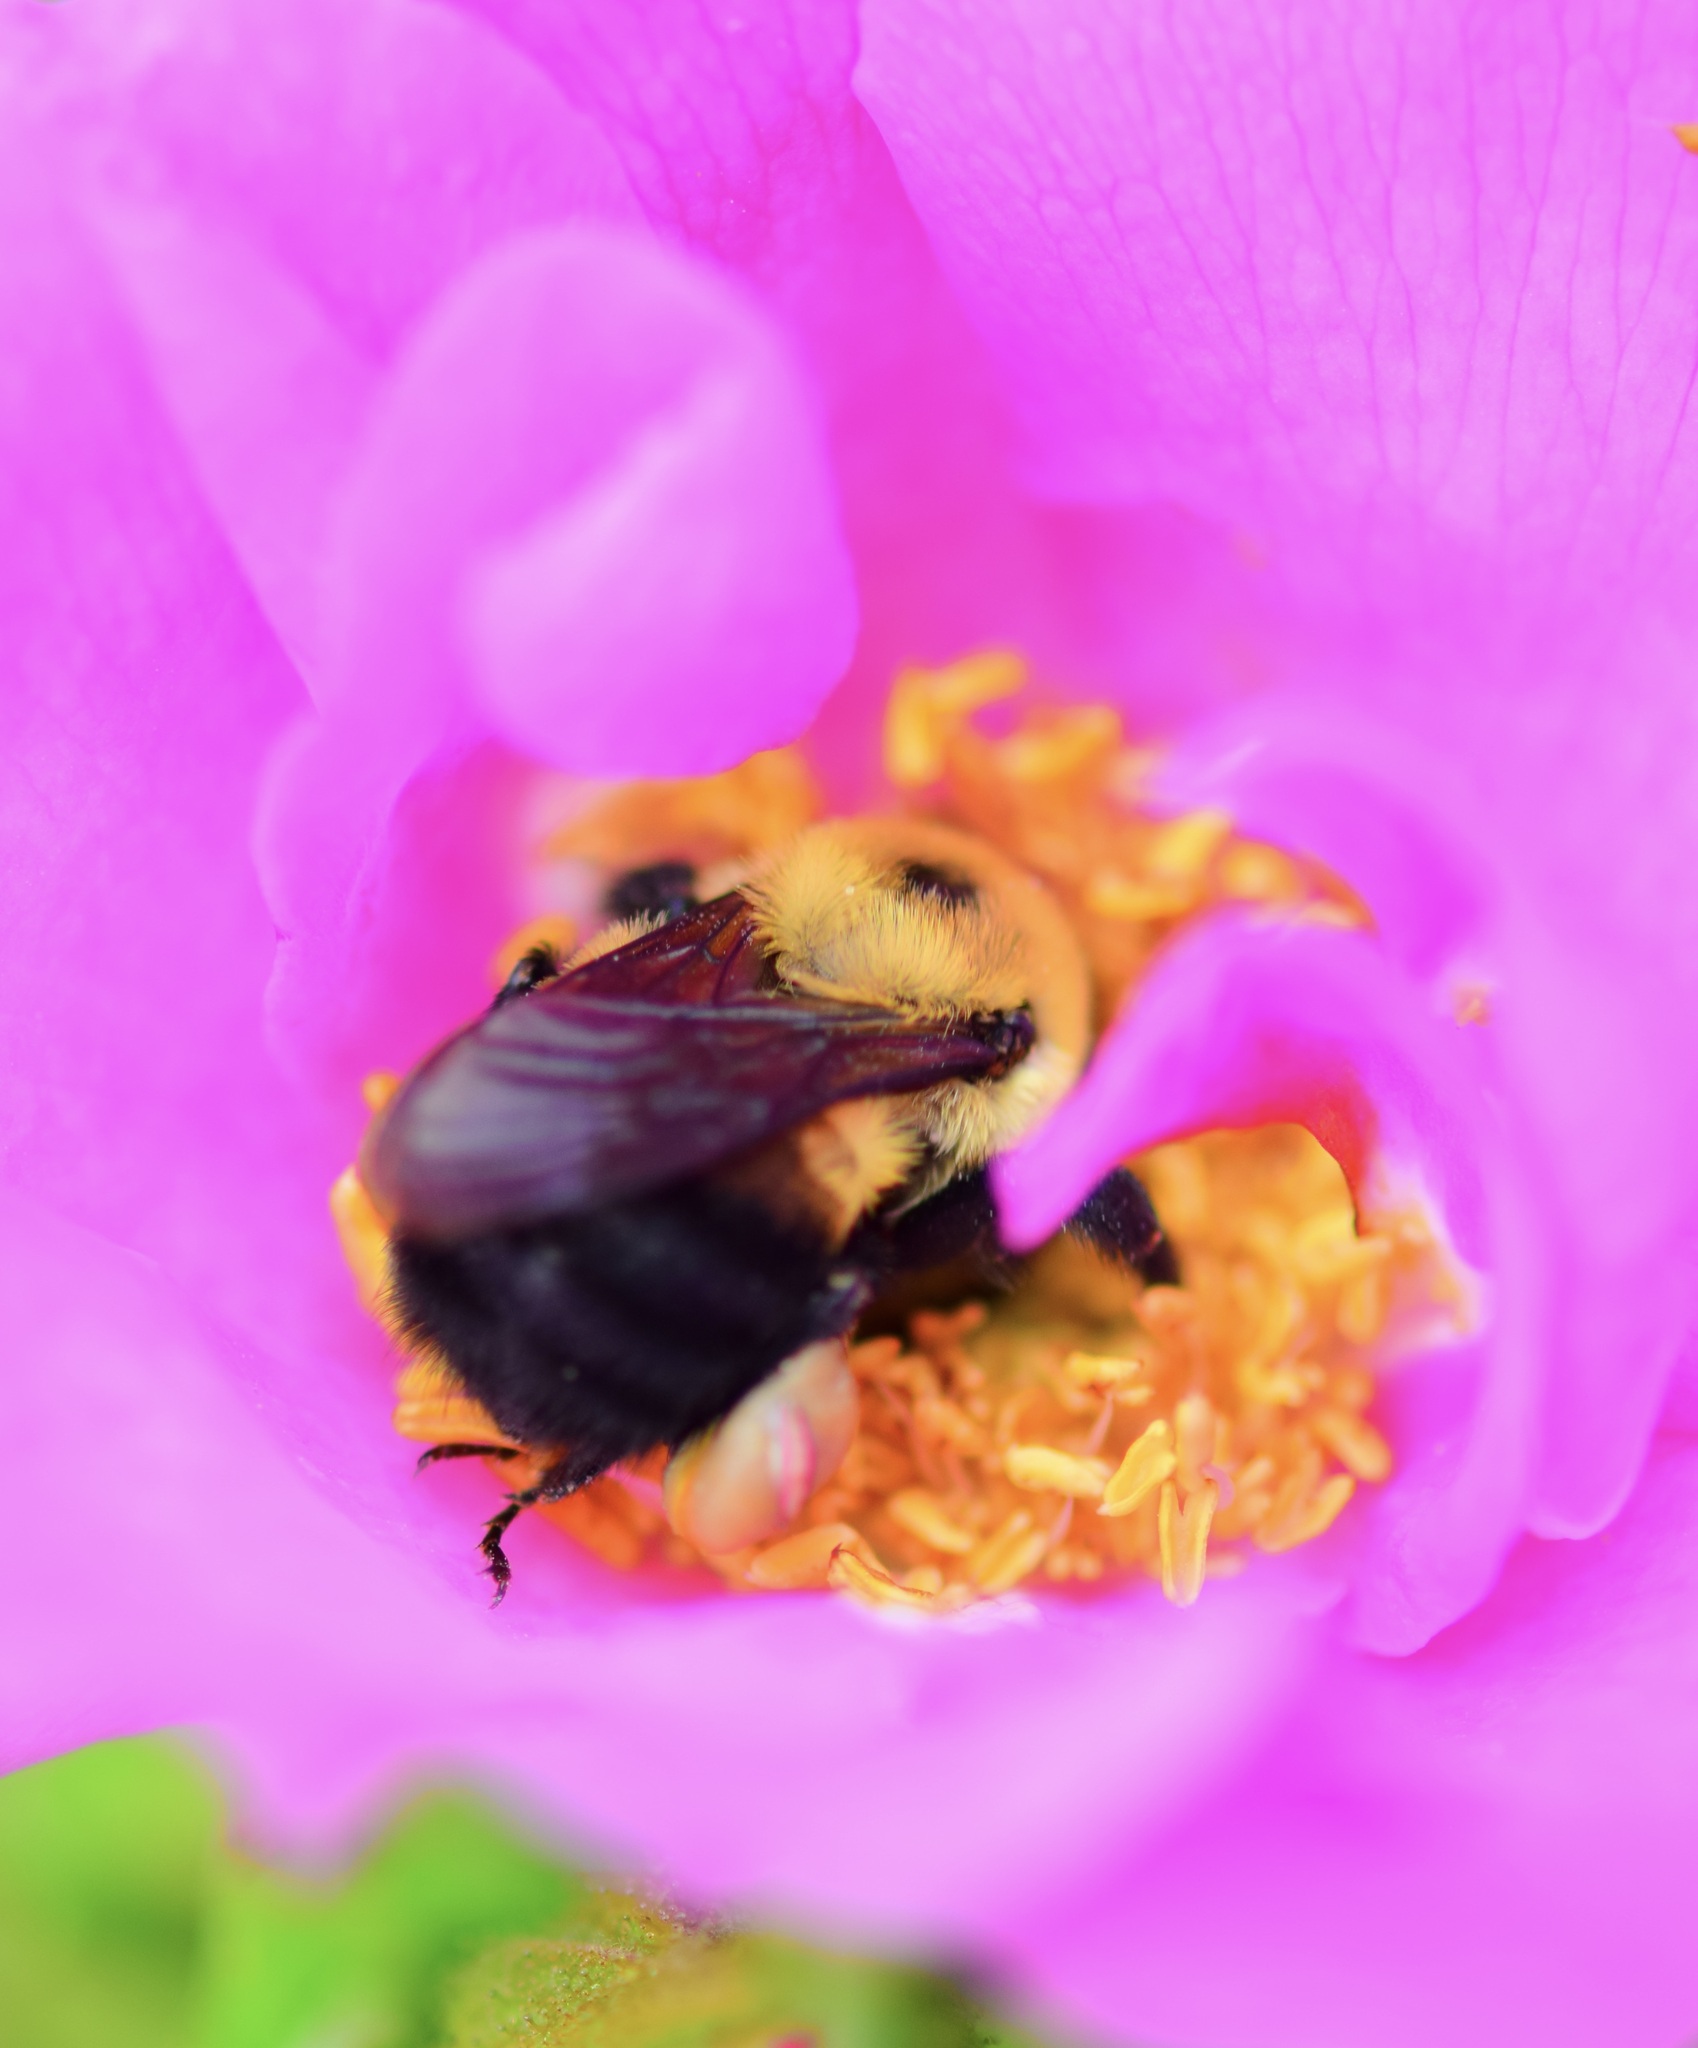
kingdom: Animalia
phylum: Arthropoda
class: Insecta
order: Hymenoptera
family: Apidae
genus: Bombus
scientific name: Bombus griseocollis
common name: Brown-belted bumble bee
